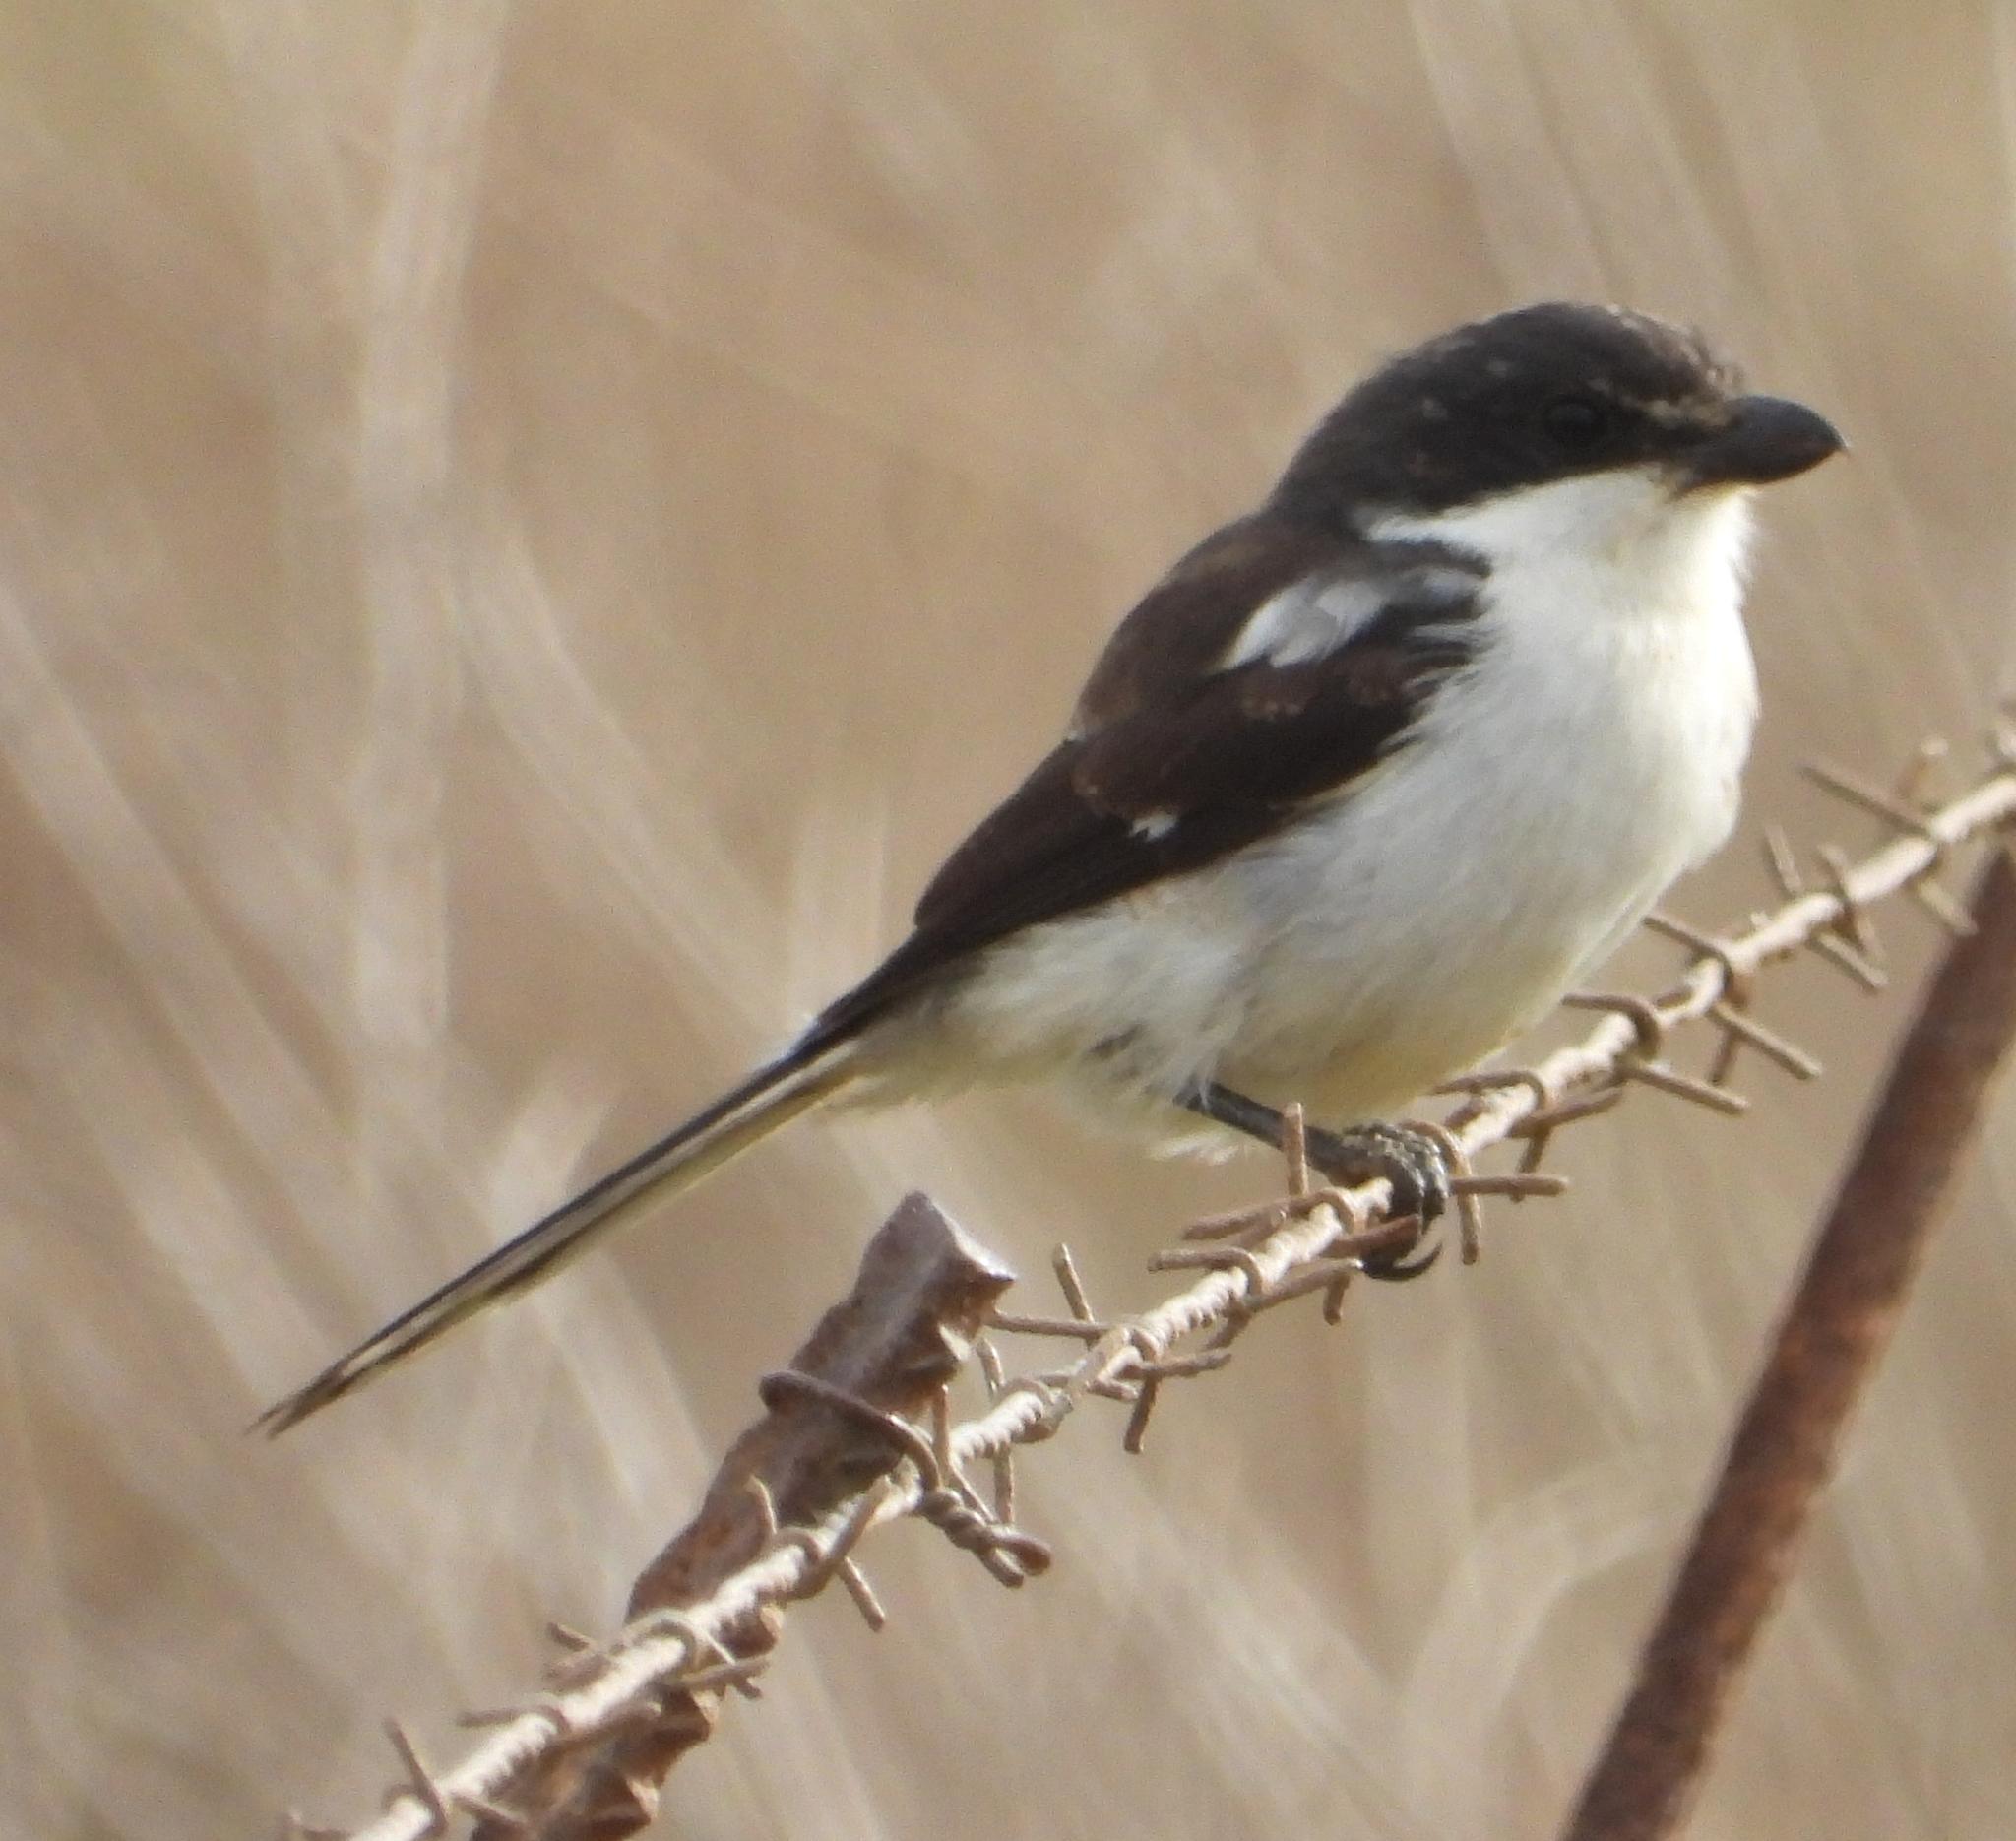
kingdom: Animalia
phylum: Chordata
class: Aves
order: Passeriformes
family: Laniidae
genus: Lanius
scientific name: Lanius collaris
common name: Southern fiscal
